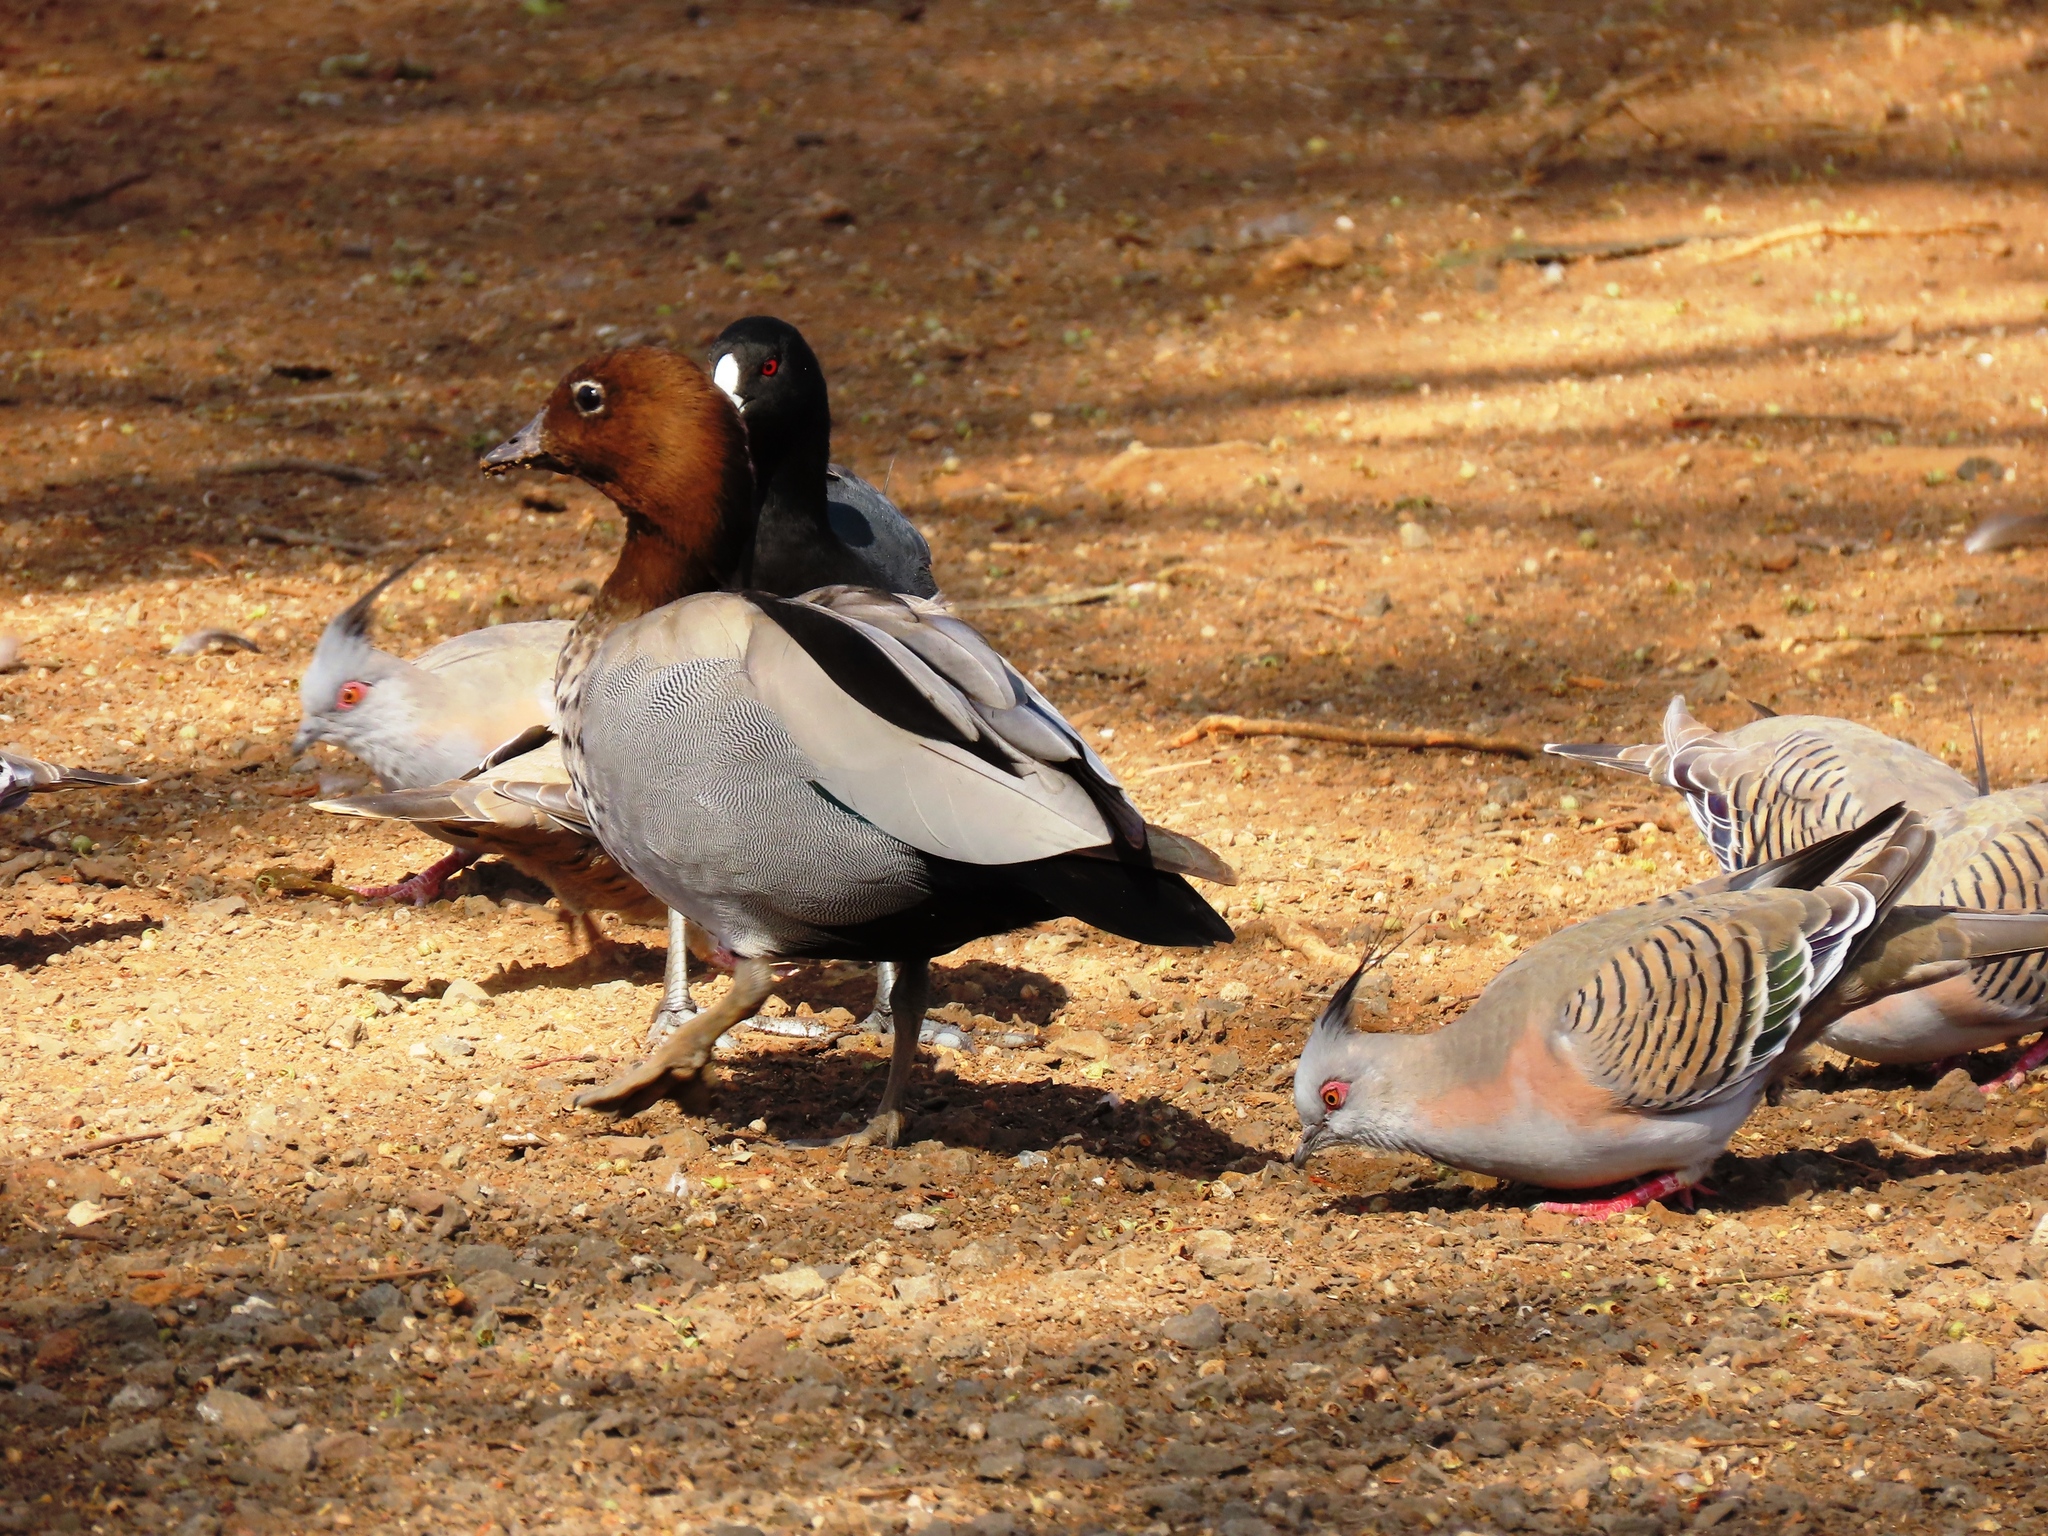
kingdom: Animalia
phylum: Chordata
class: Aves
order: Anseriformes
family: Anatidae
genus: Chenonetta
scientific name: Chenonetta jubata
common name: Maned duck
